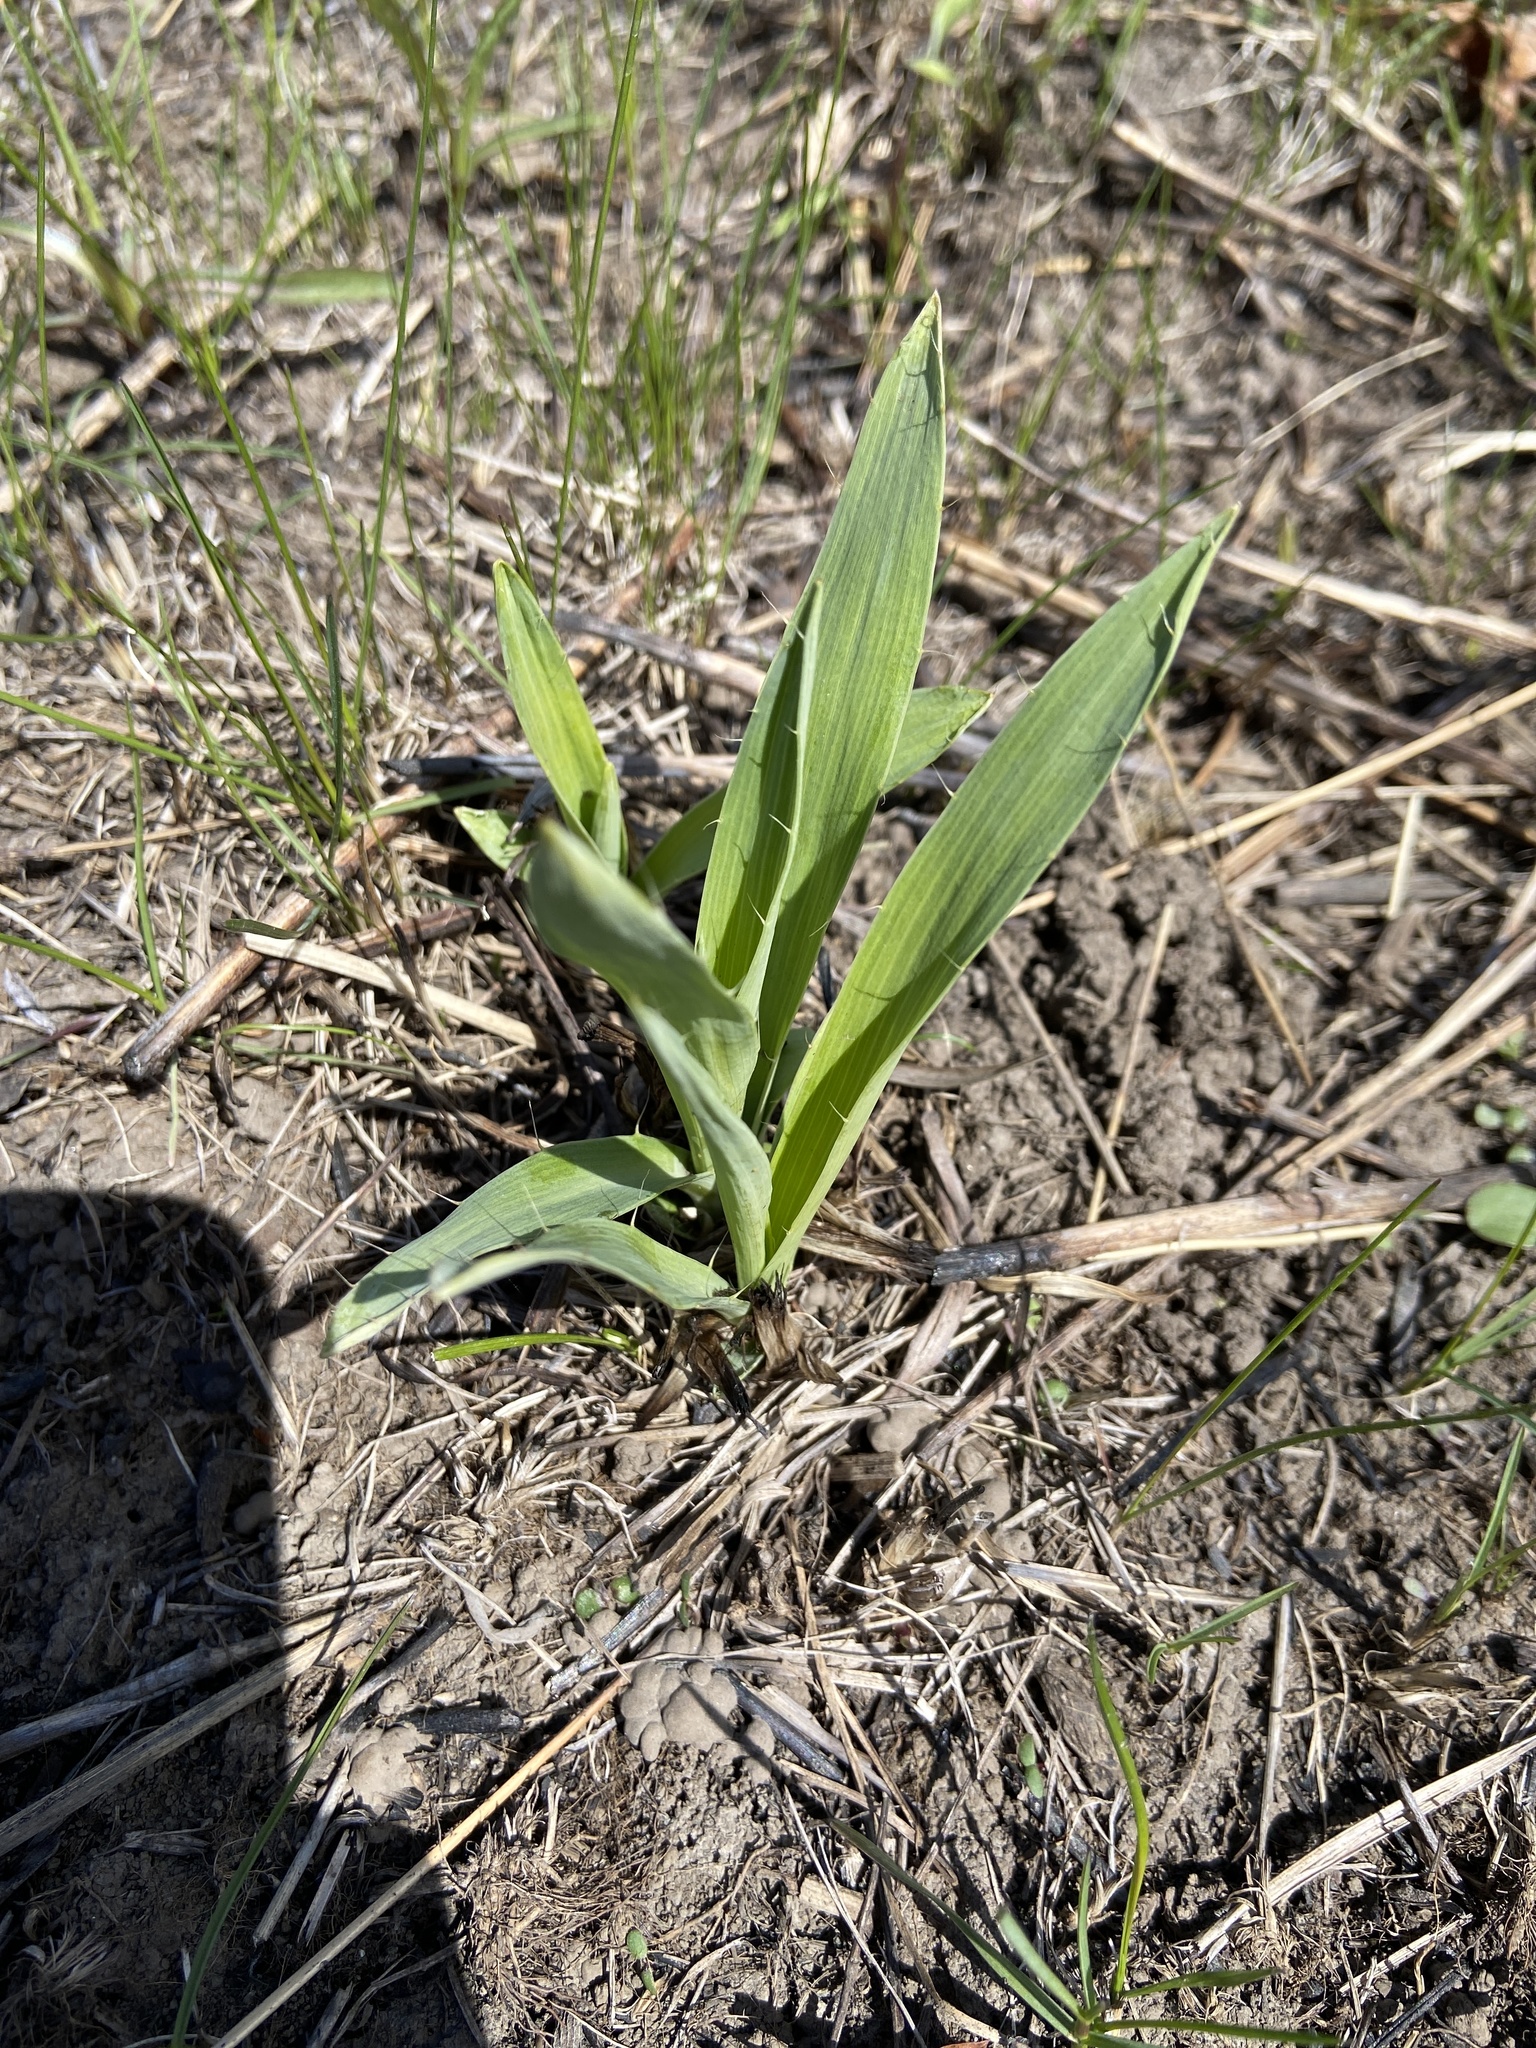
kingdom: Plantae
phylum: Tracheophyta
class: Magnoliopsida
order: Apiales
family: Apiaceae
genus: Eryngium
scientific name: Eryngium yuccifolium
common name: Button eryngo
